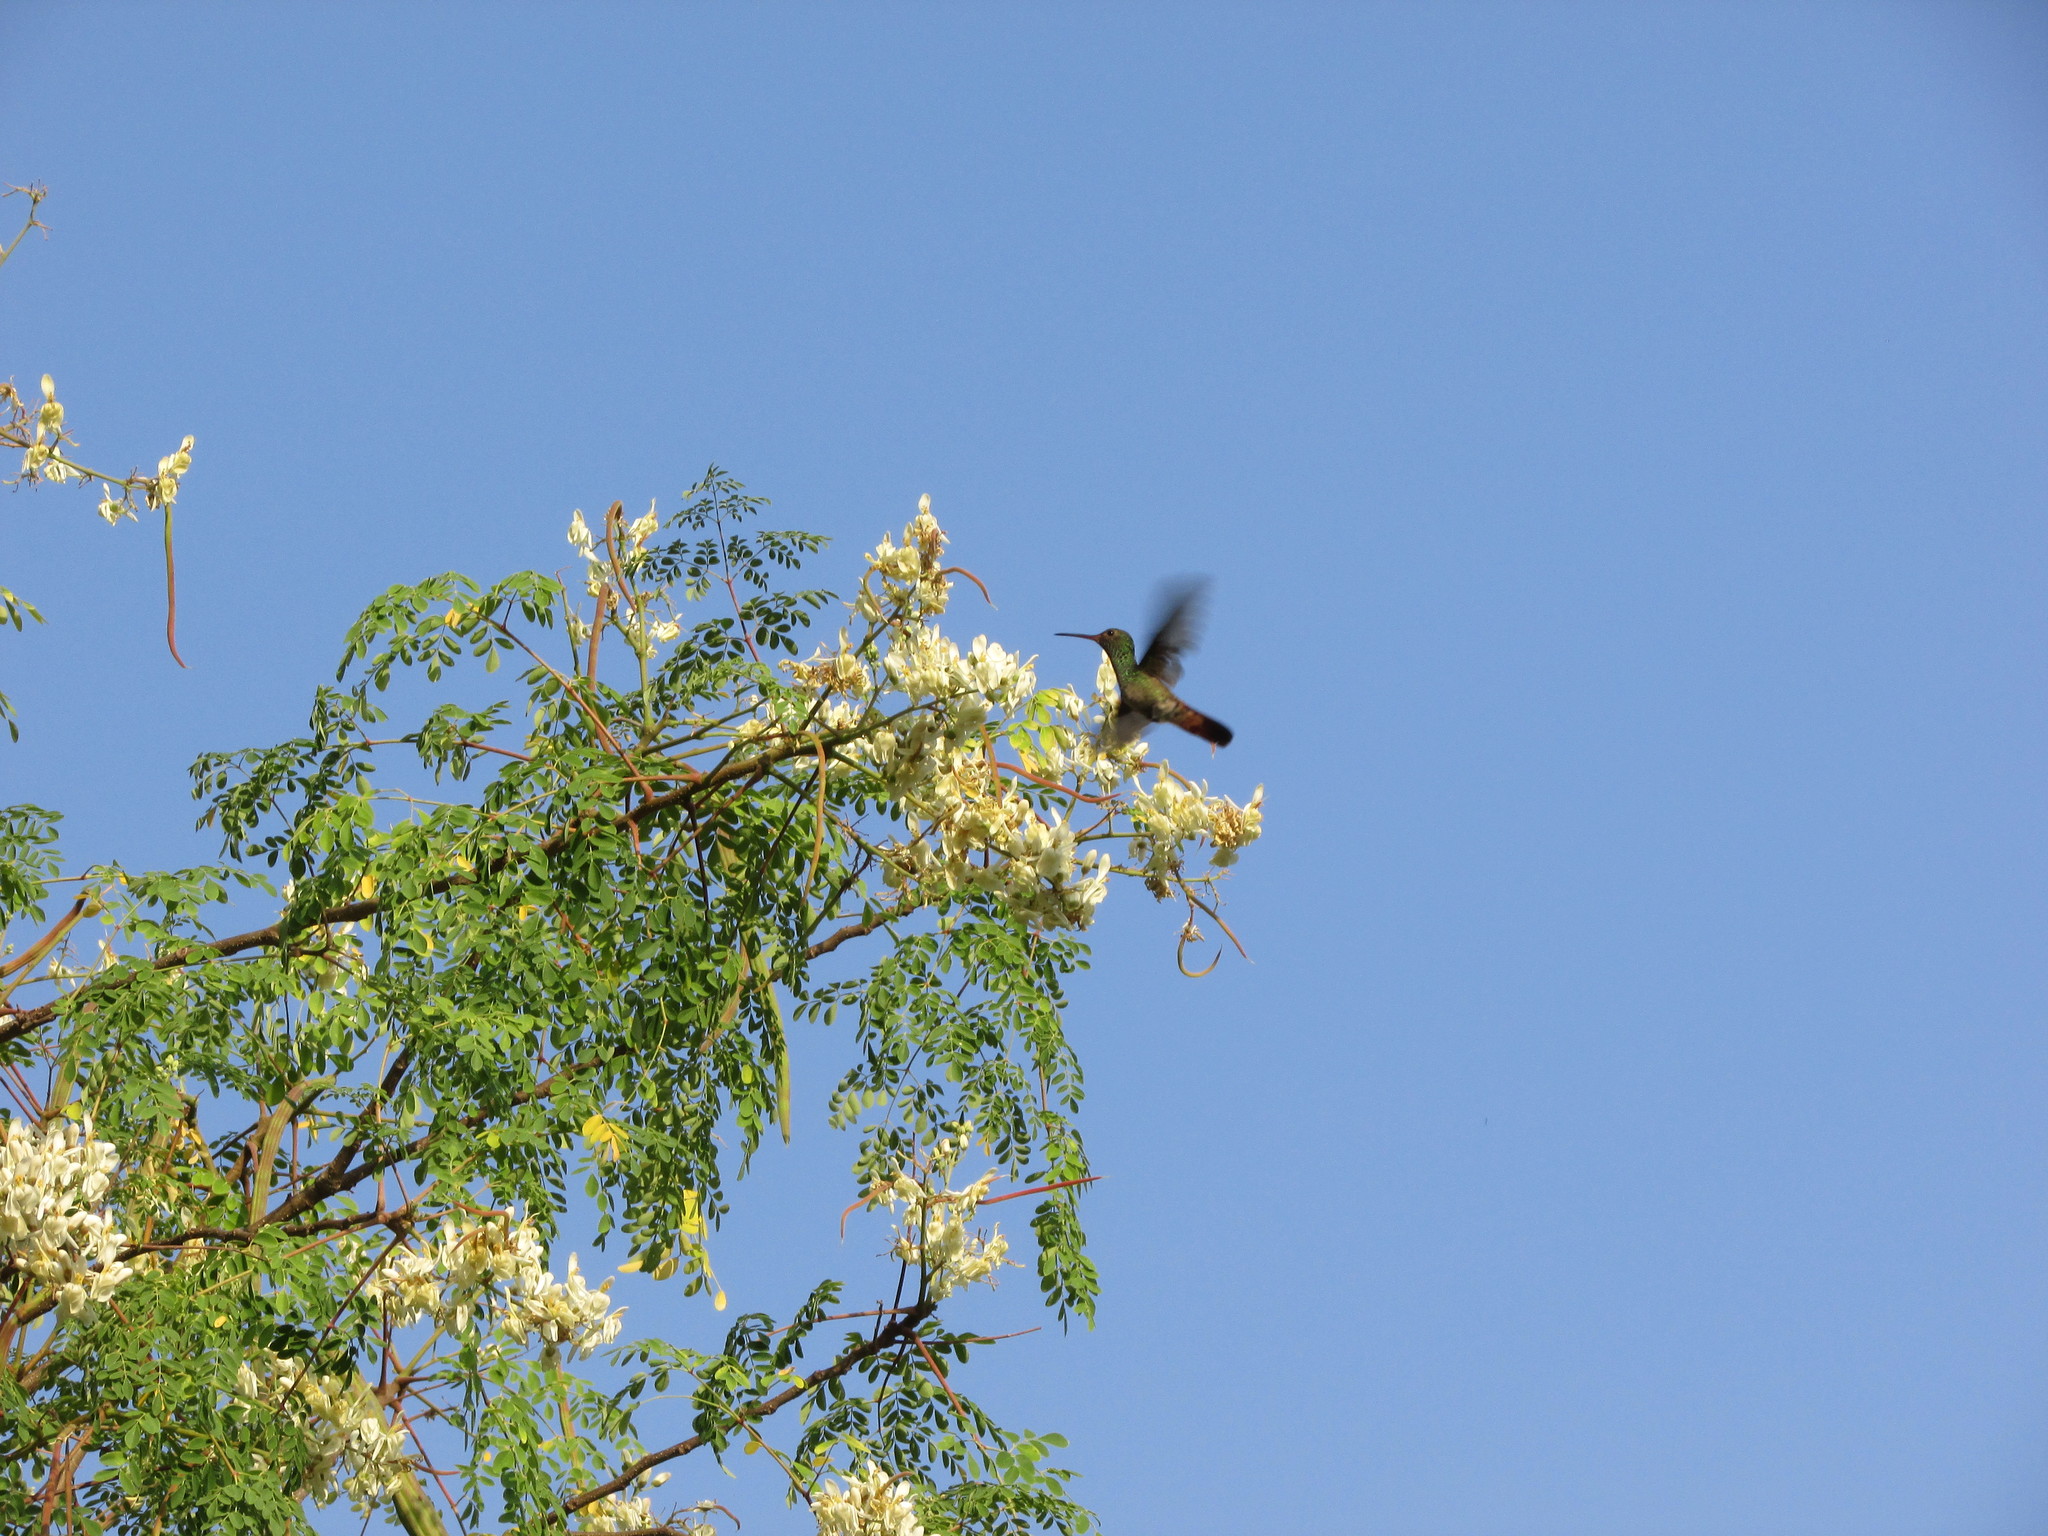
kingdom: Animalia
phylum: Chordata
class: Aves
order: Apodiformes
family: Trochilidae
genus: Amazilia
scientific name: Amazilia tzacatl
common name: Rufous-tailed hummingbird
